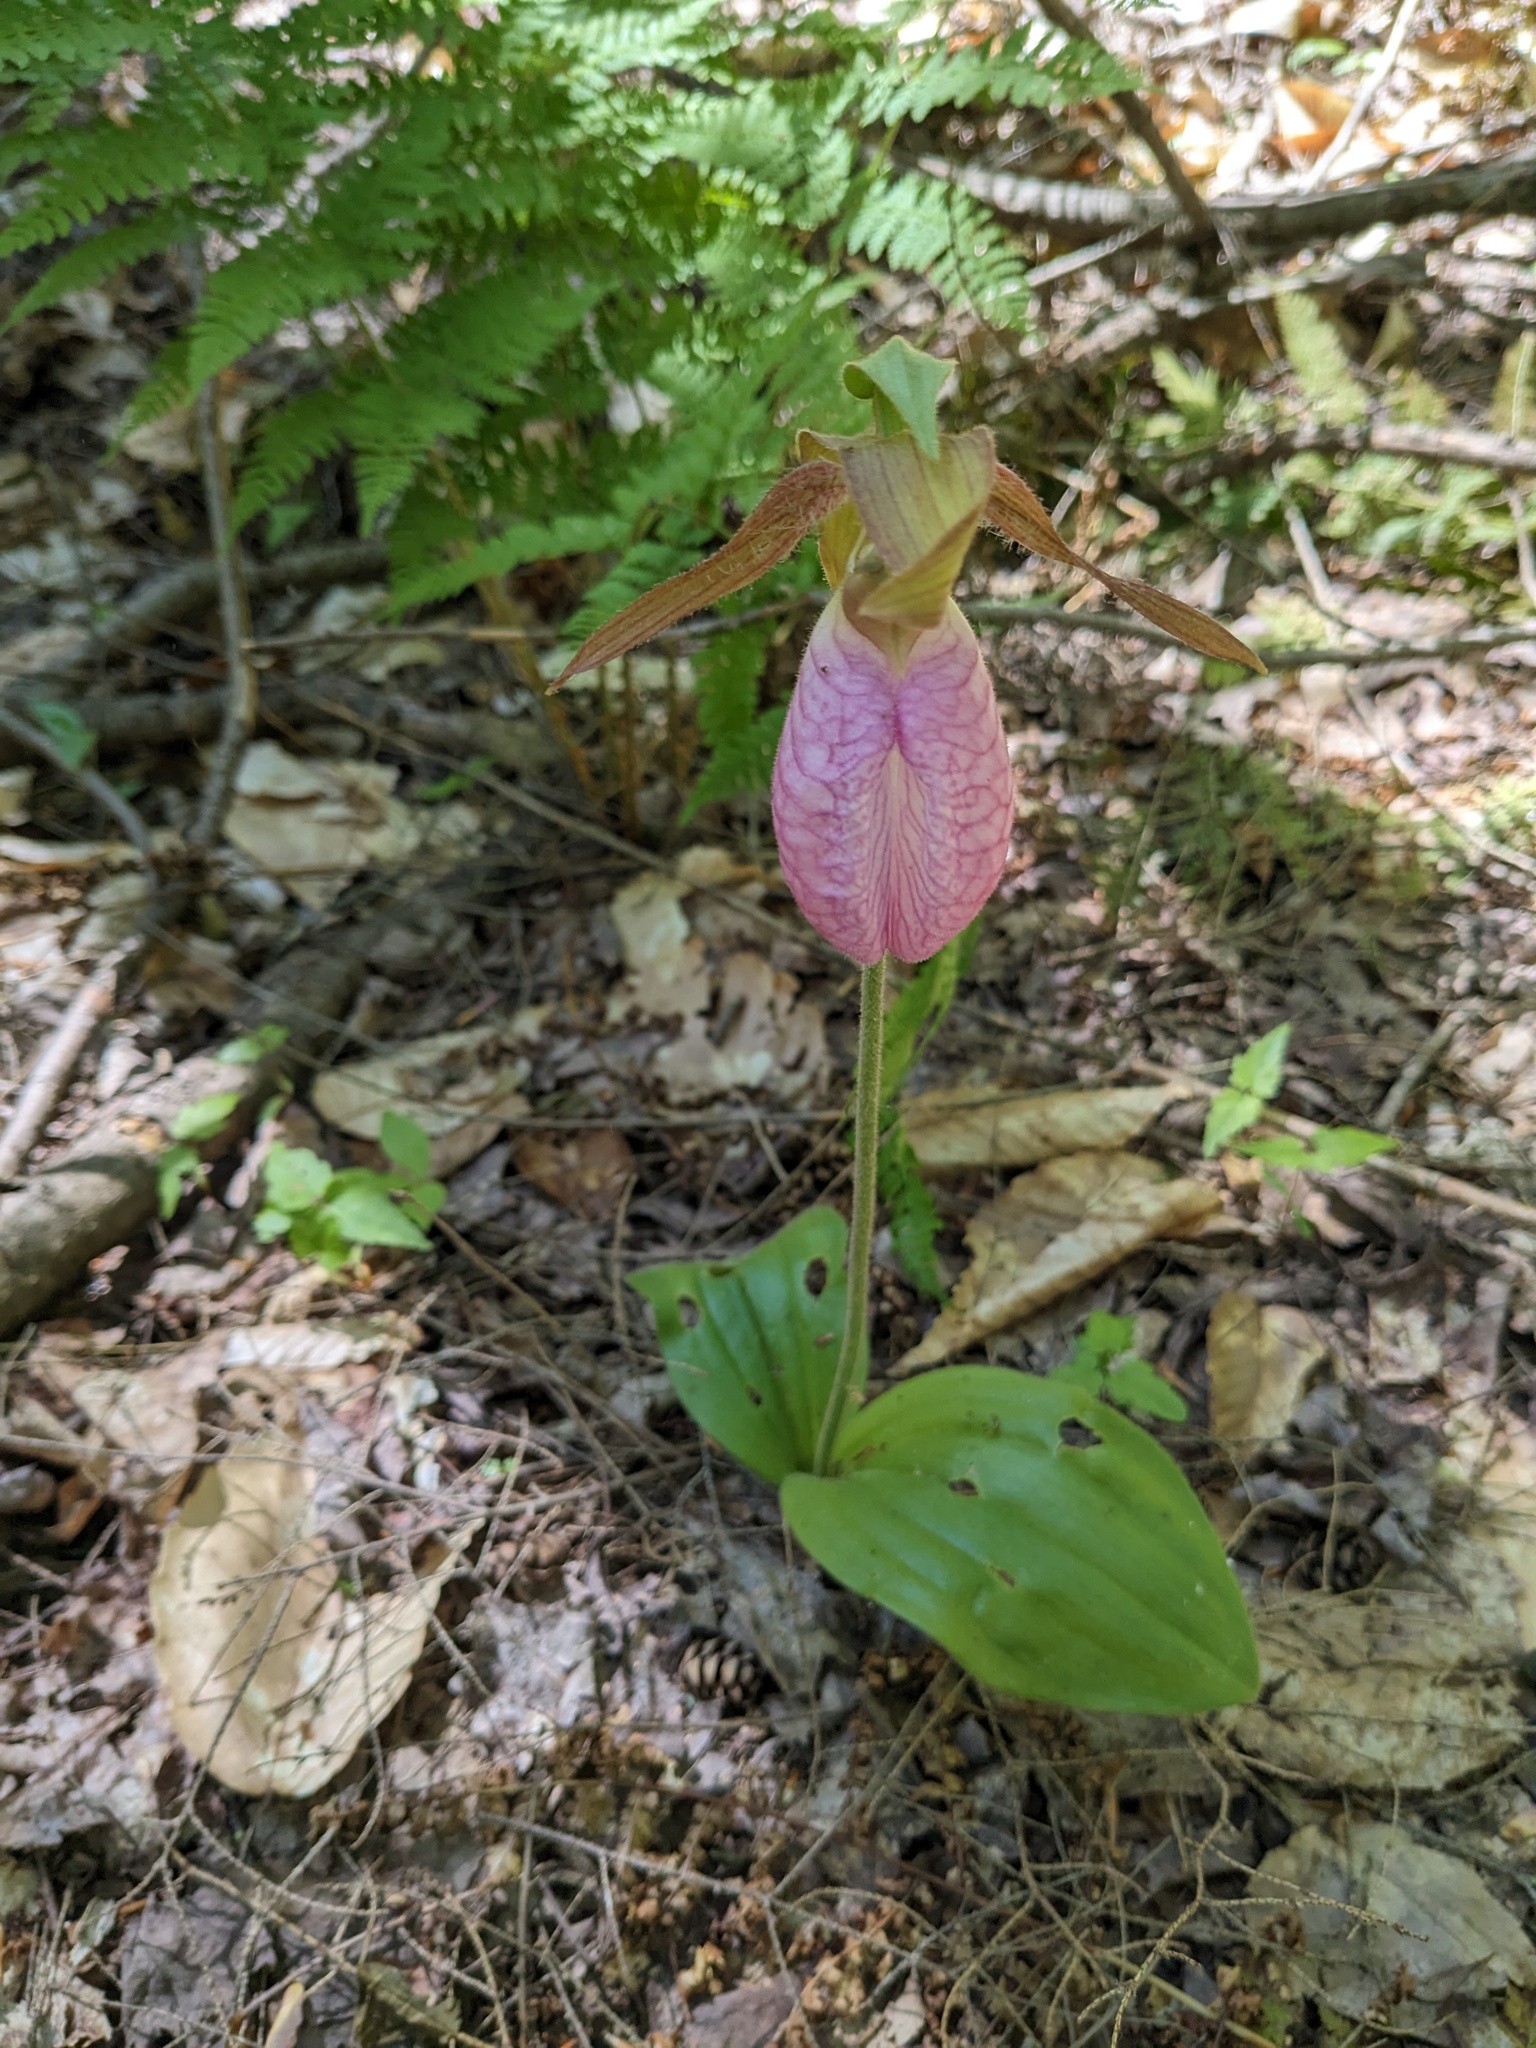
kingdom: Plantae
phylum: Tracheophyta
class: Liliopsida
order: Asparagales
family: Orchidaceae
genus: Cypripedium
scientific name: Cypripedium acaule
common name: Pink lady's-slipper
